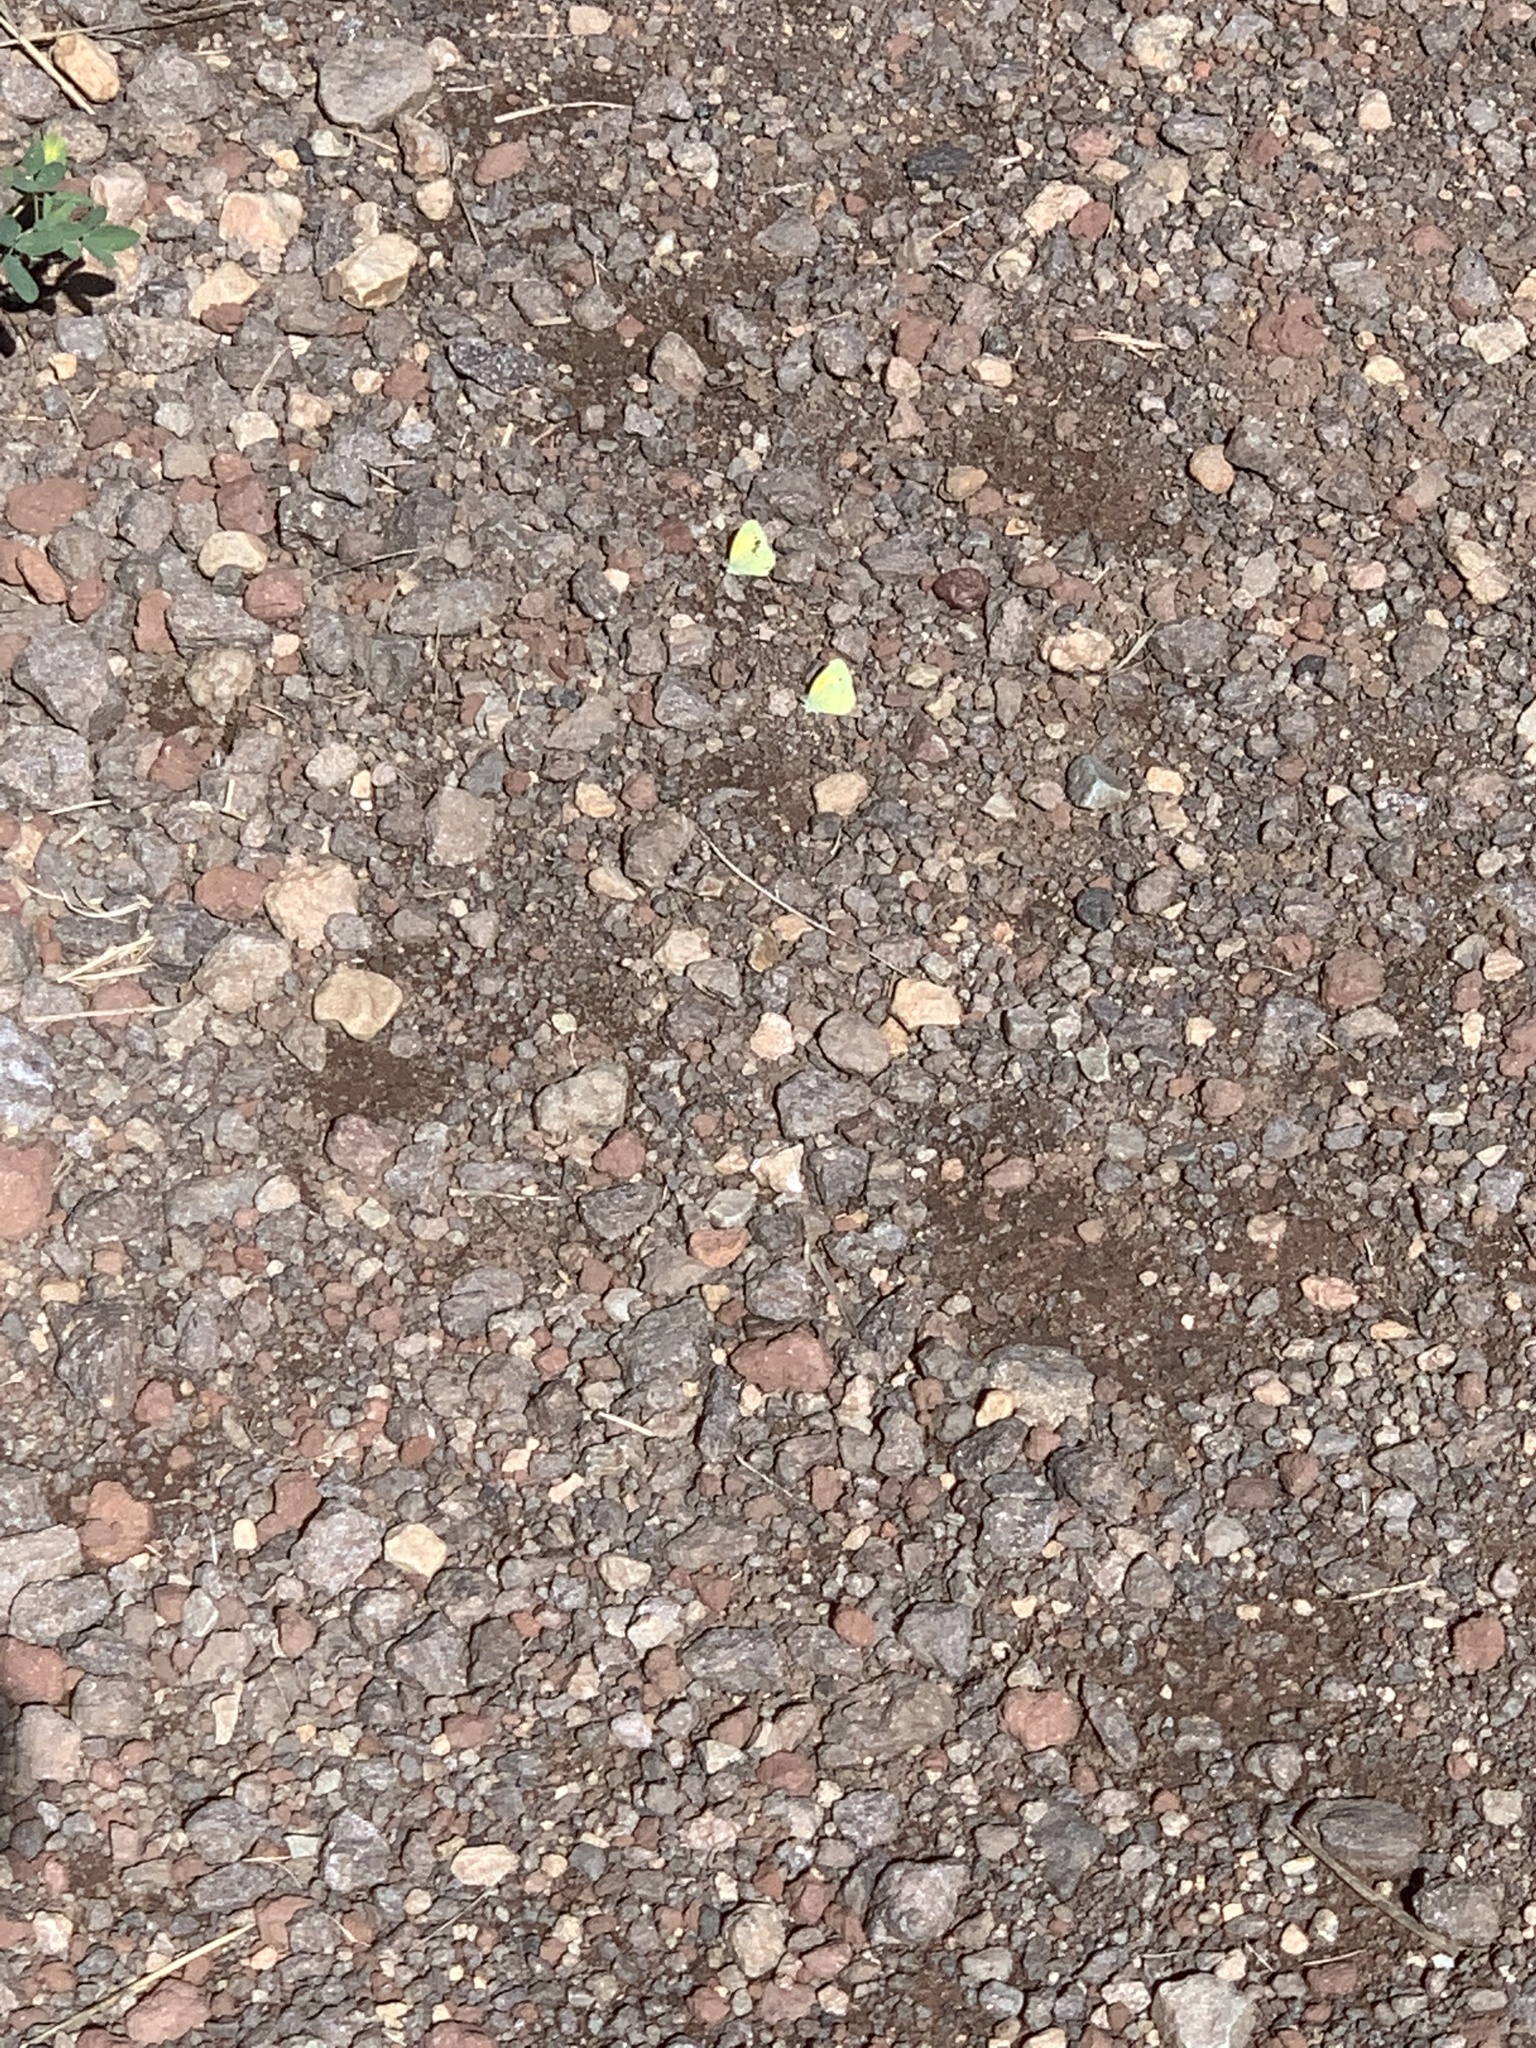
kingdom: Animalia
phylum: Arthropoda
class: Insecta
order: Lepidoptera
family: Pieridae
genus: Nathalis
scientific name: Nathalis iole
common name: Dainty sulphur
